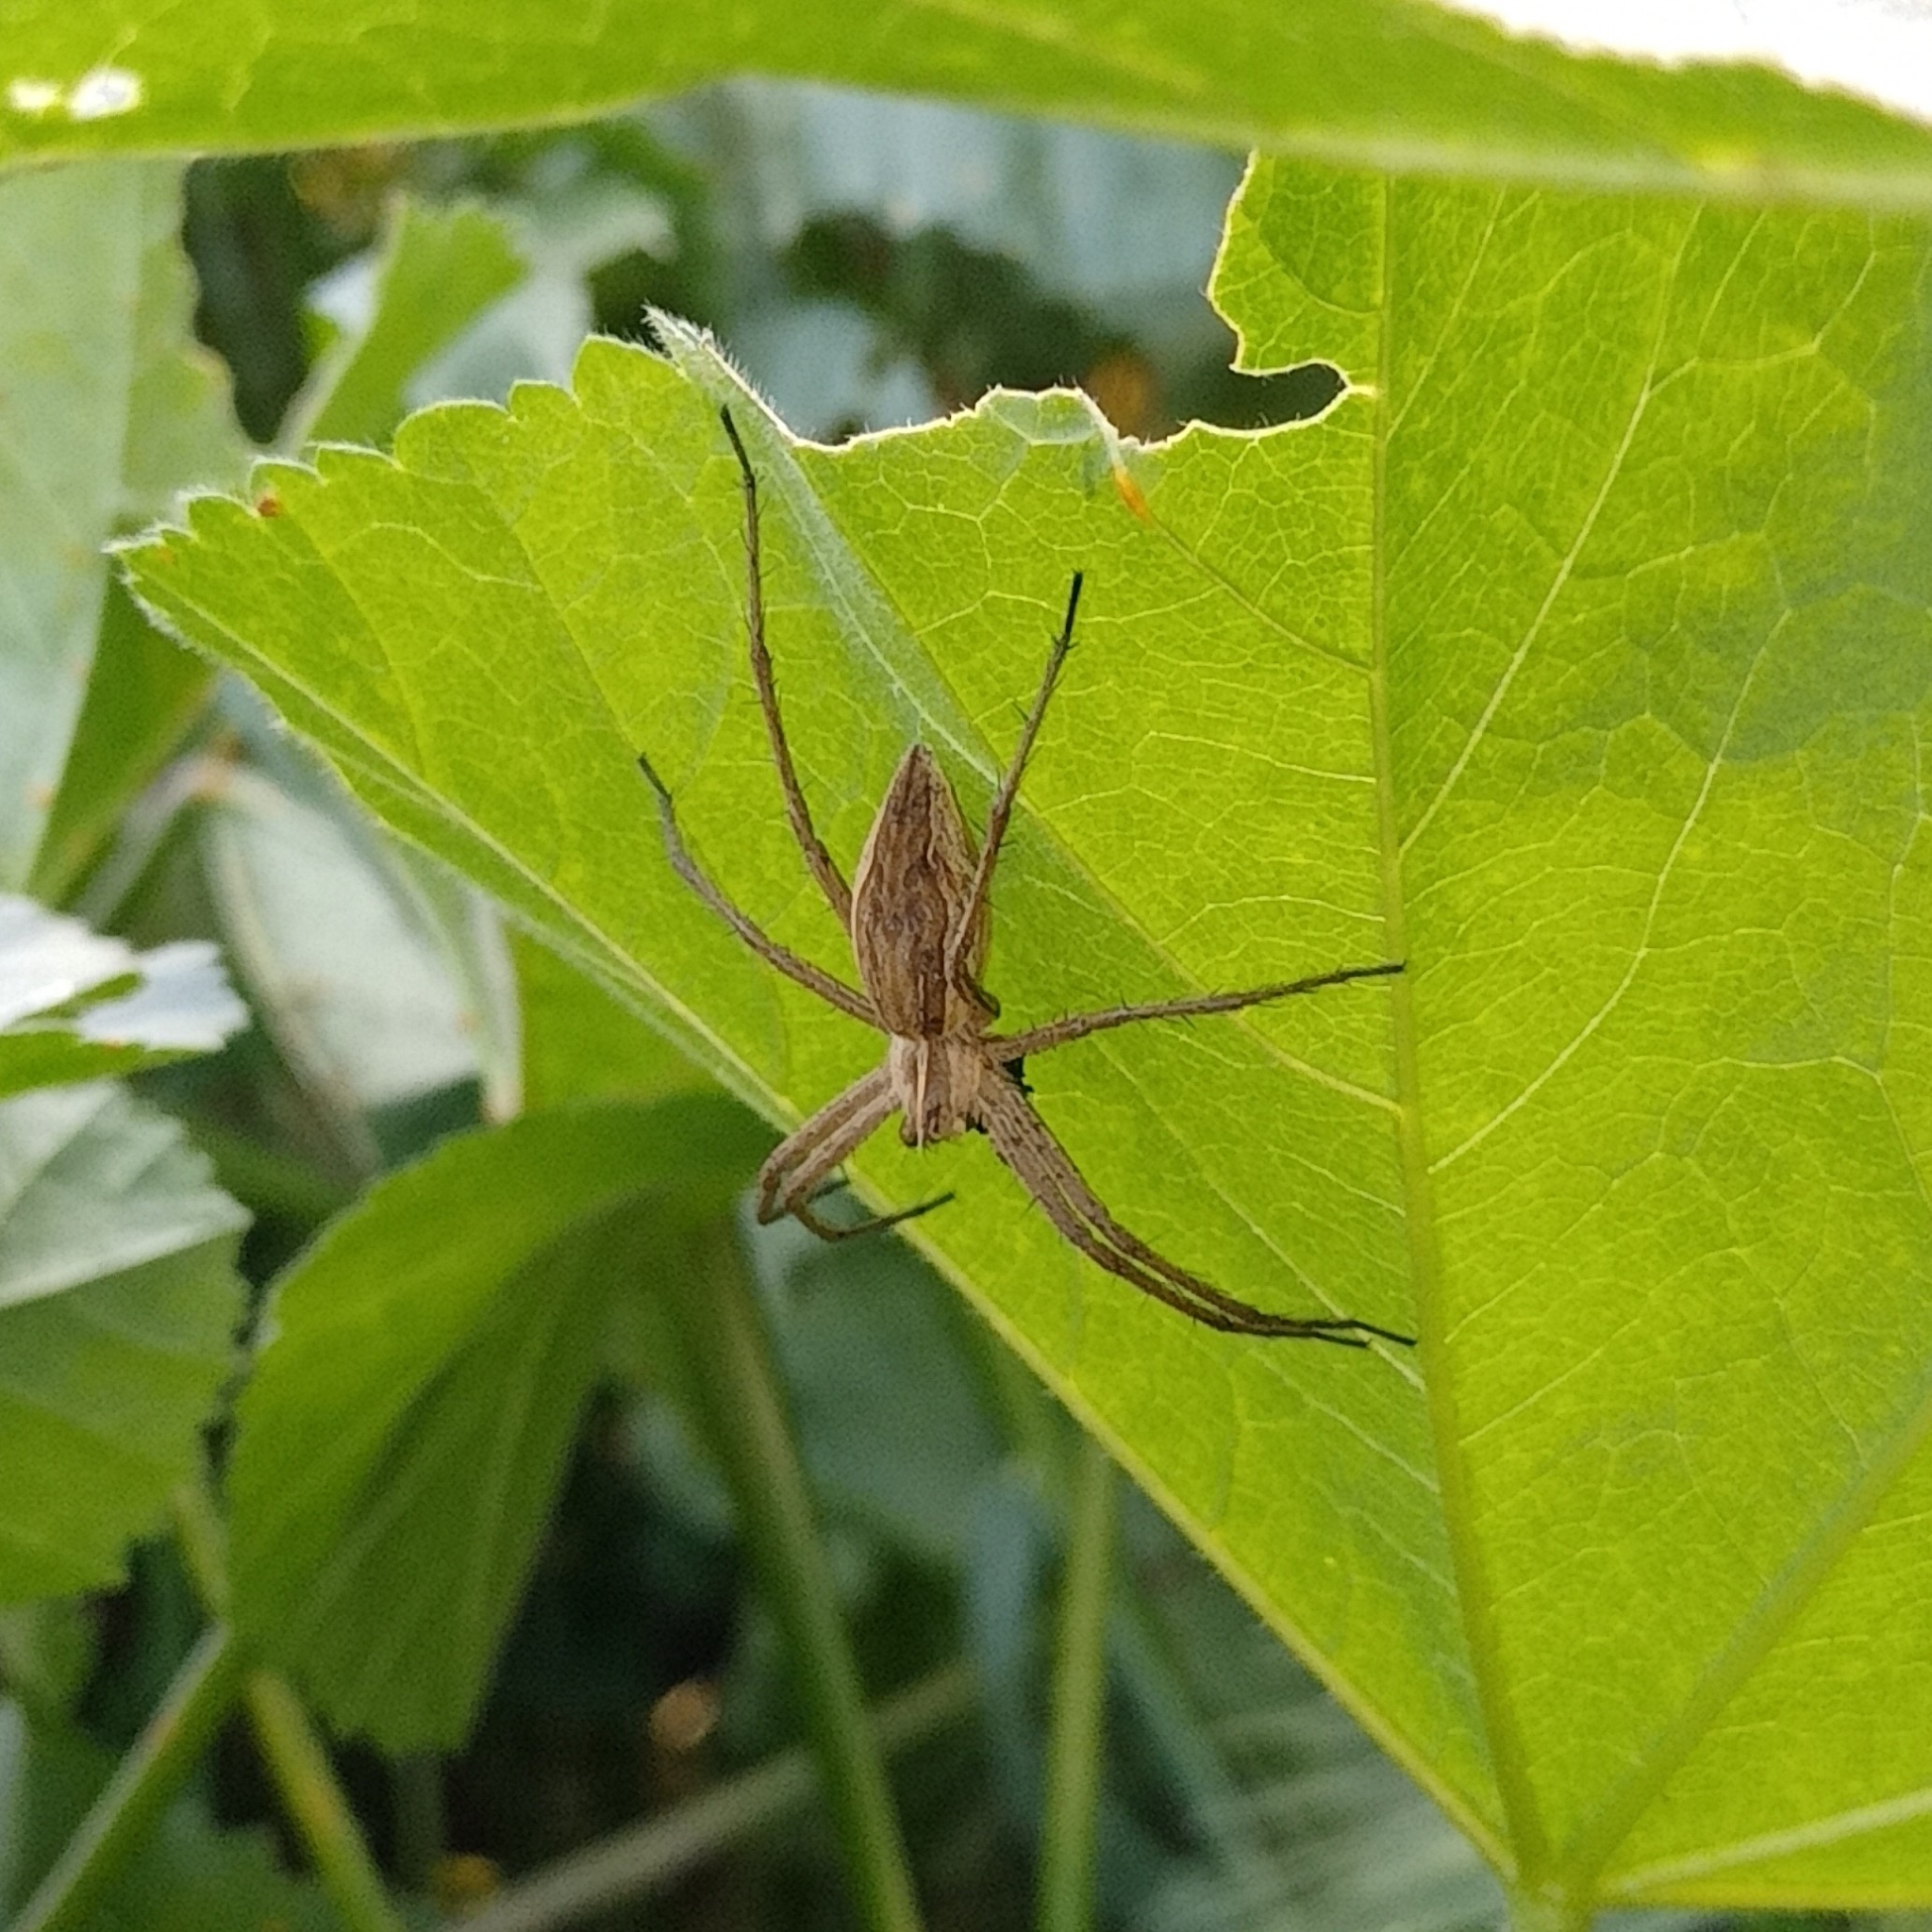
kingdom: Animalia
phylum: Arthropoda
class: Arachnida
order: Araneae
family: Pisauridae
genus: Pisaura
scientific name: Pisaura mirabilis
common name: Tent spider
